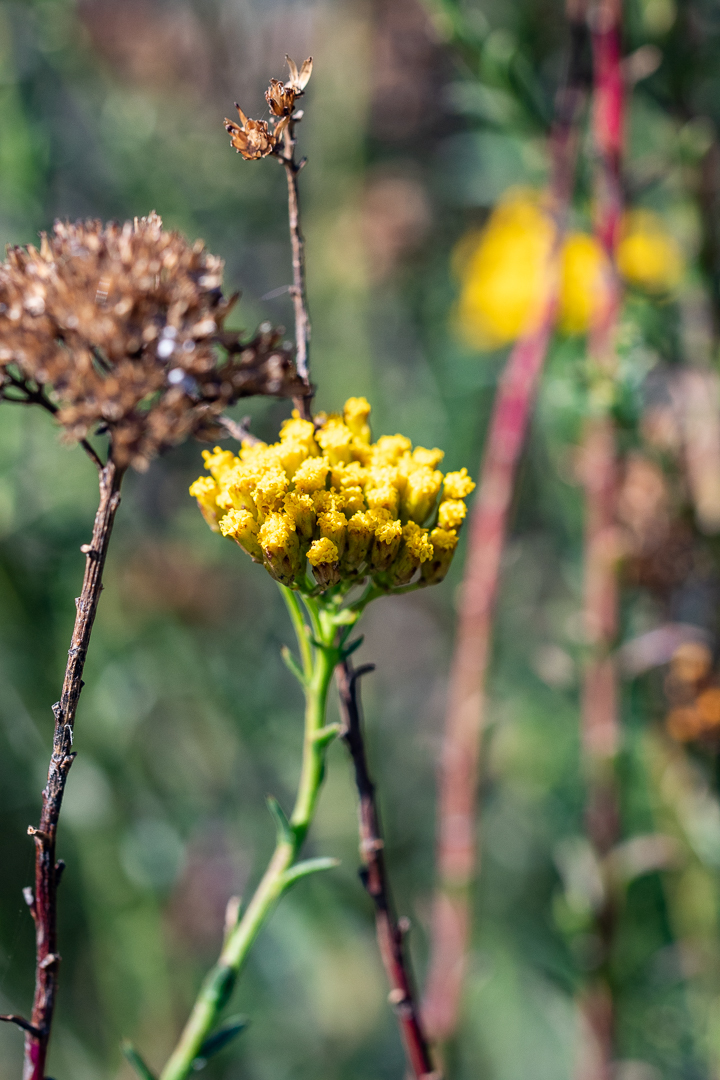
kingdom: Plantae
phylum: Tracheophyta
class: Magnoliopsida
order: Asterales
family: Asteraceae
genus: Athanasia
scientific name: Athanasia juncea
